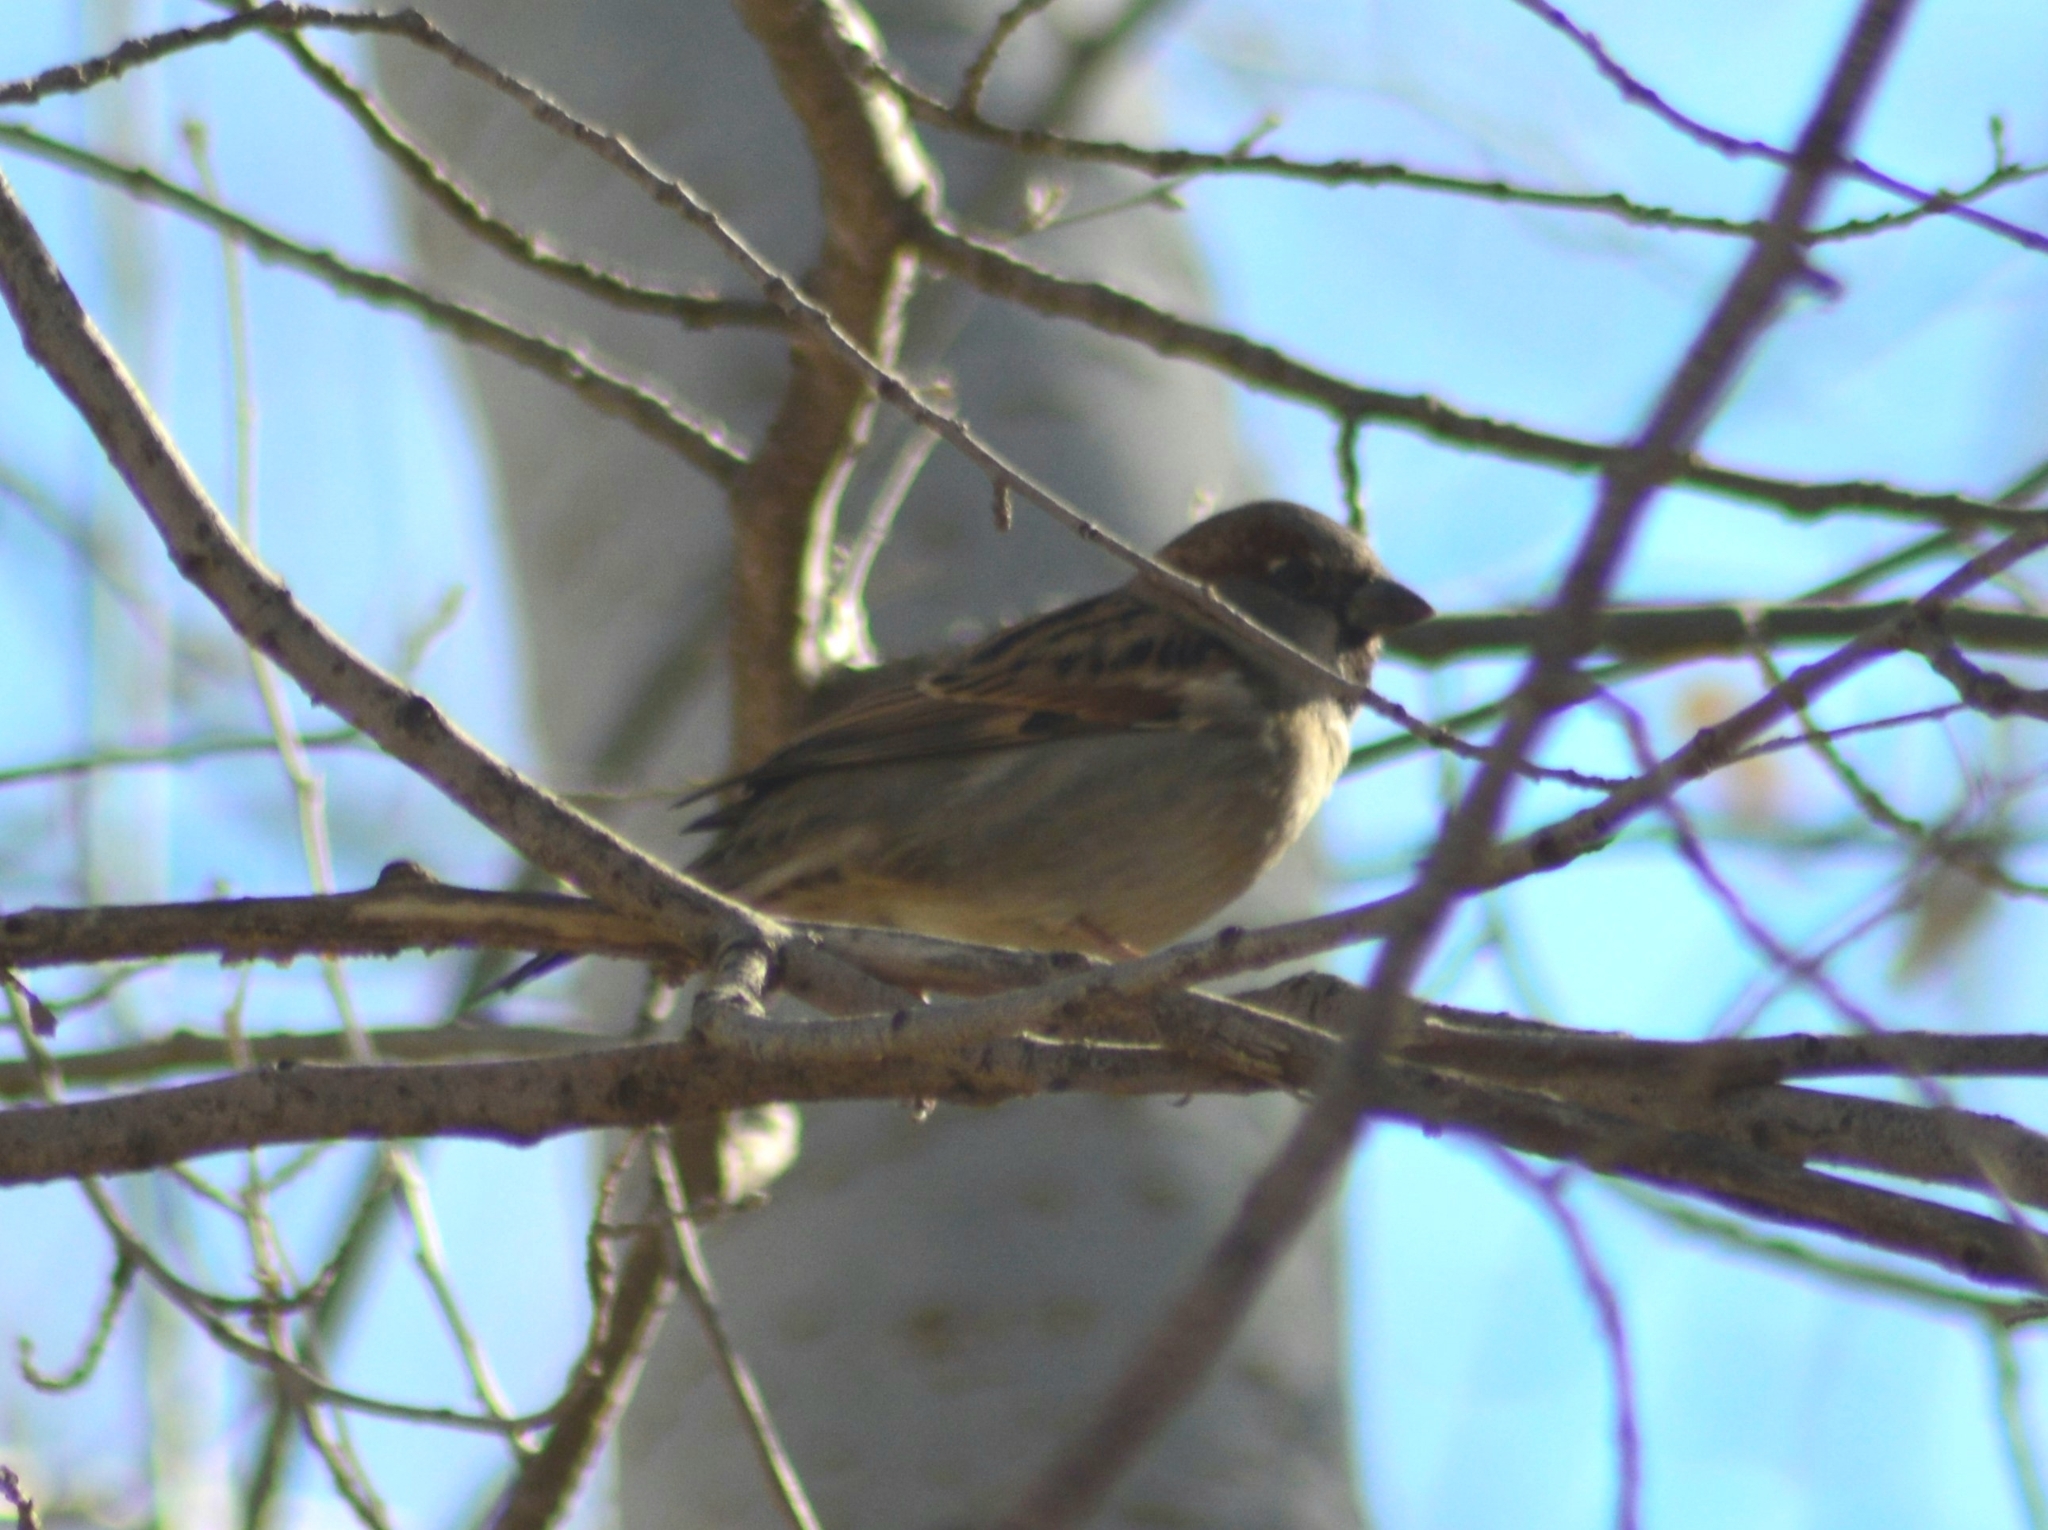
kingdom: Animalia
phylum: Chordata
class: Aves
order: Passeriformes
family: Passeridae
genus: Passer
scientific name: Passer domesticus
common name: House sparrow
